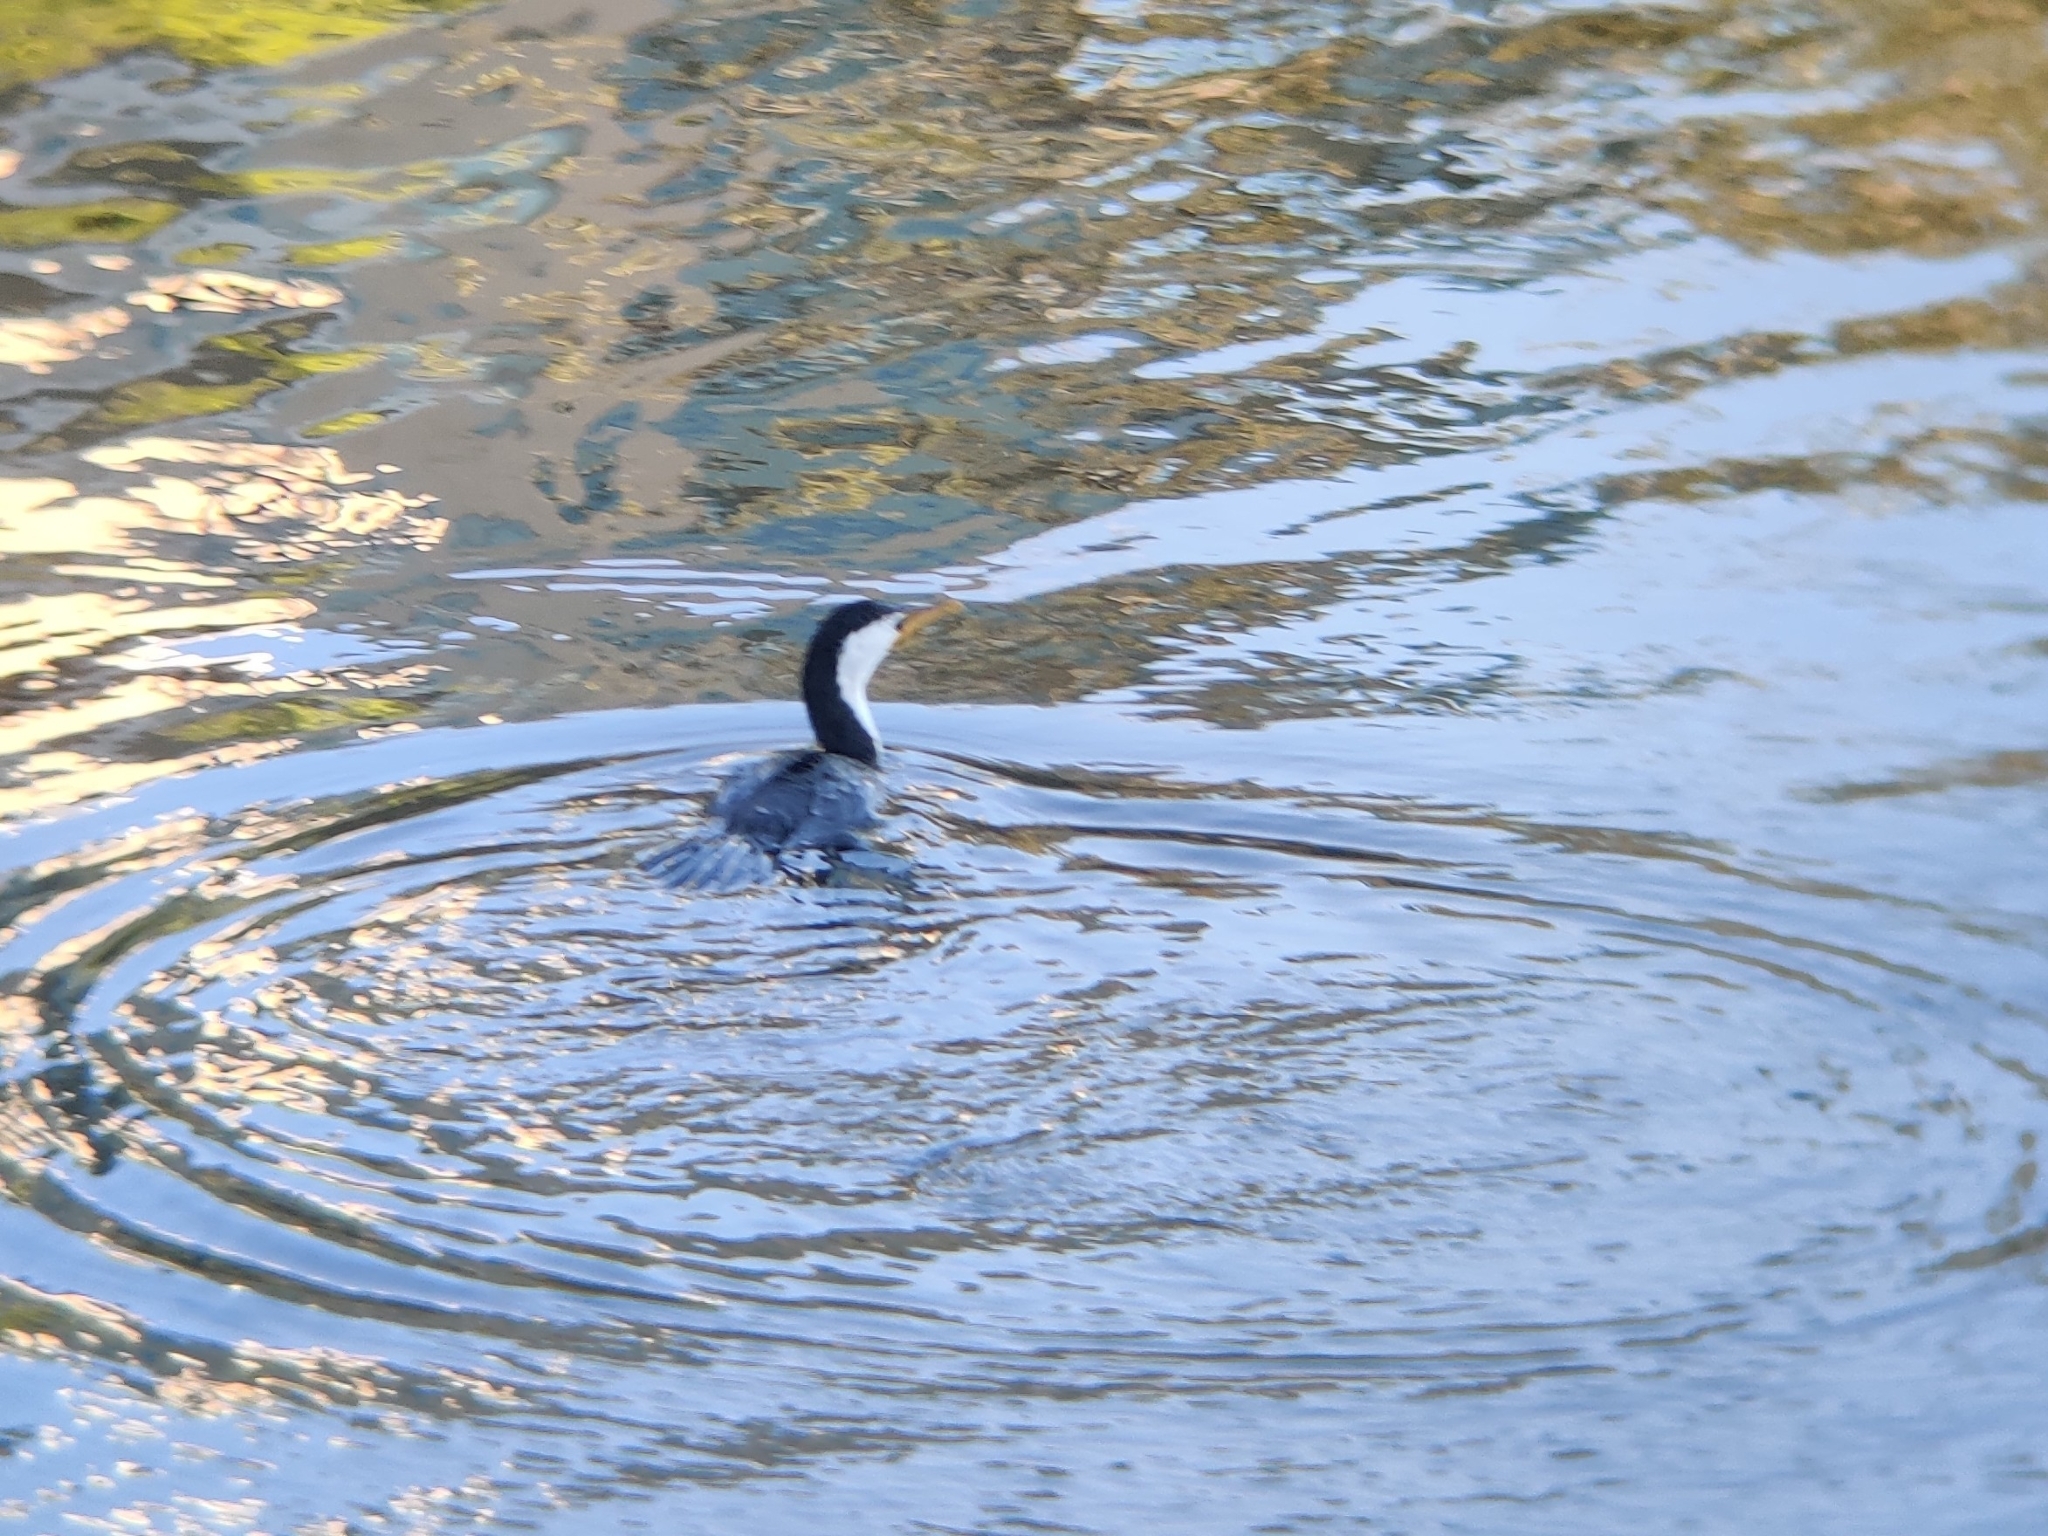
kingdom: Animalia
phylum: Chordata
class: Aves
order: Suliformes
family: Phalacrocoracidae
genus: Microcarbo
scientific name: Microcarbo melanoleucos
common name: Little pied cormorant
